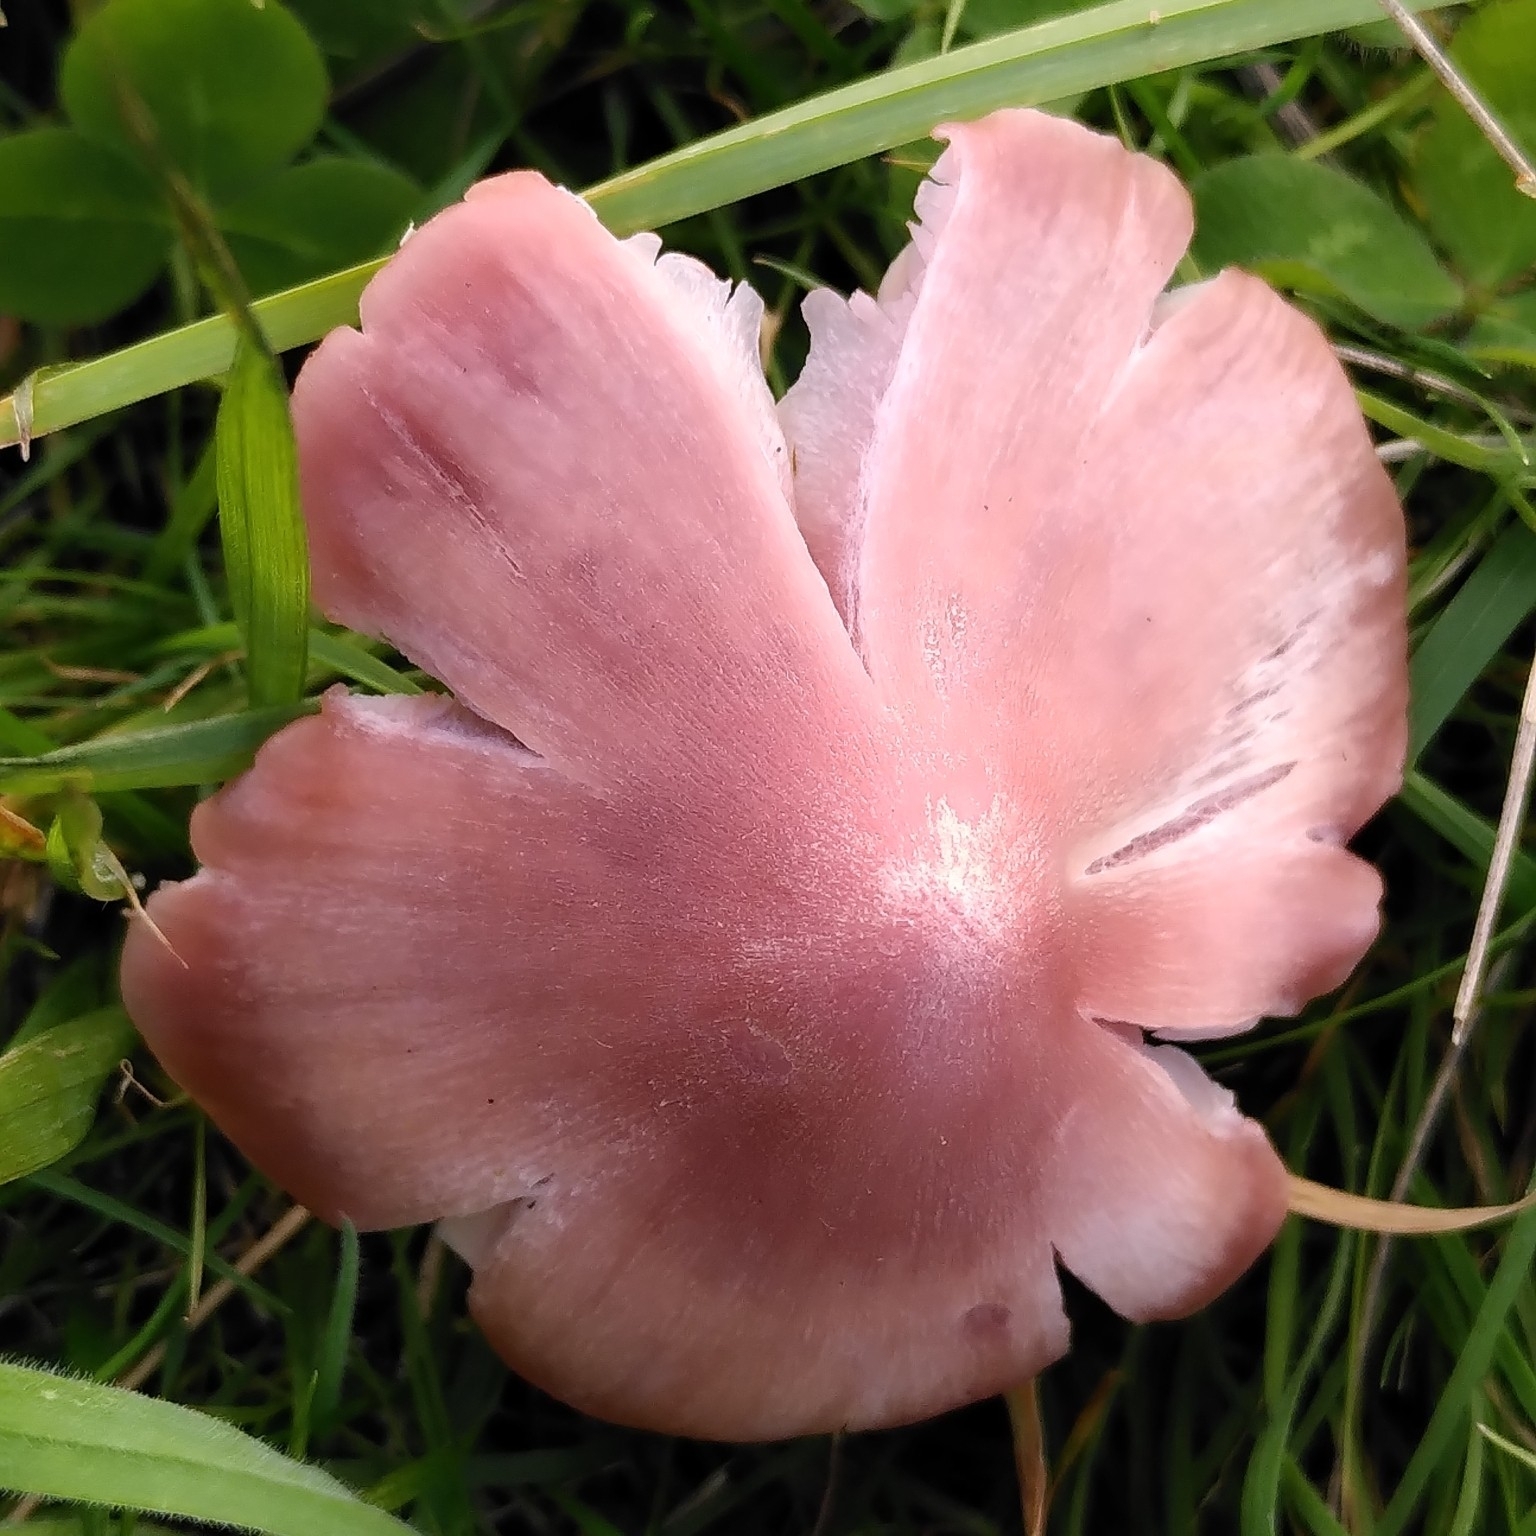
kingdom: Fungi
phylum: Basidiomycota
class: Agaricomycetes
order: Agaricales
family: Hygrophoraceae
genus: Porpolomopsis
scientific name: Porpolomopsis calyptriformis
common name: Pink waxcap
